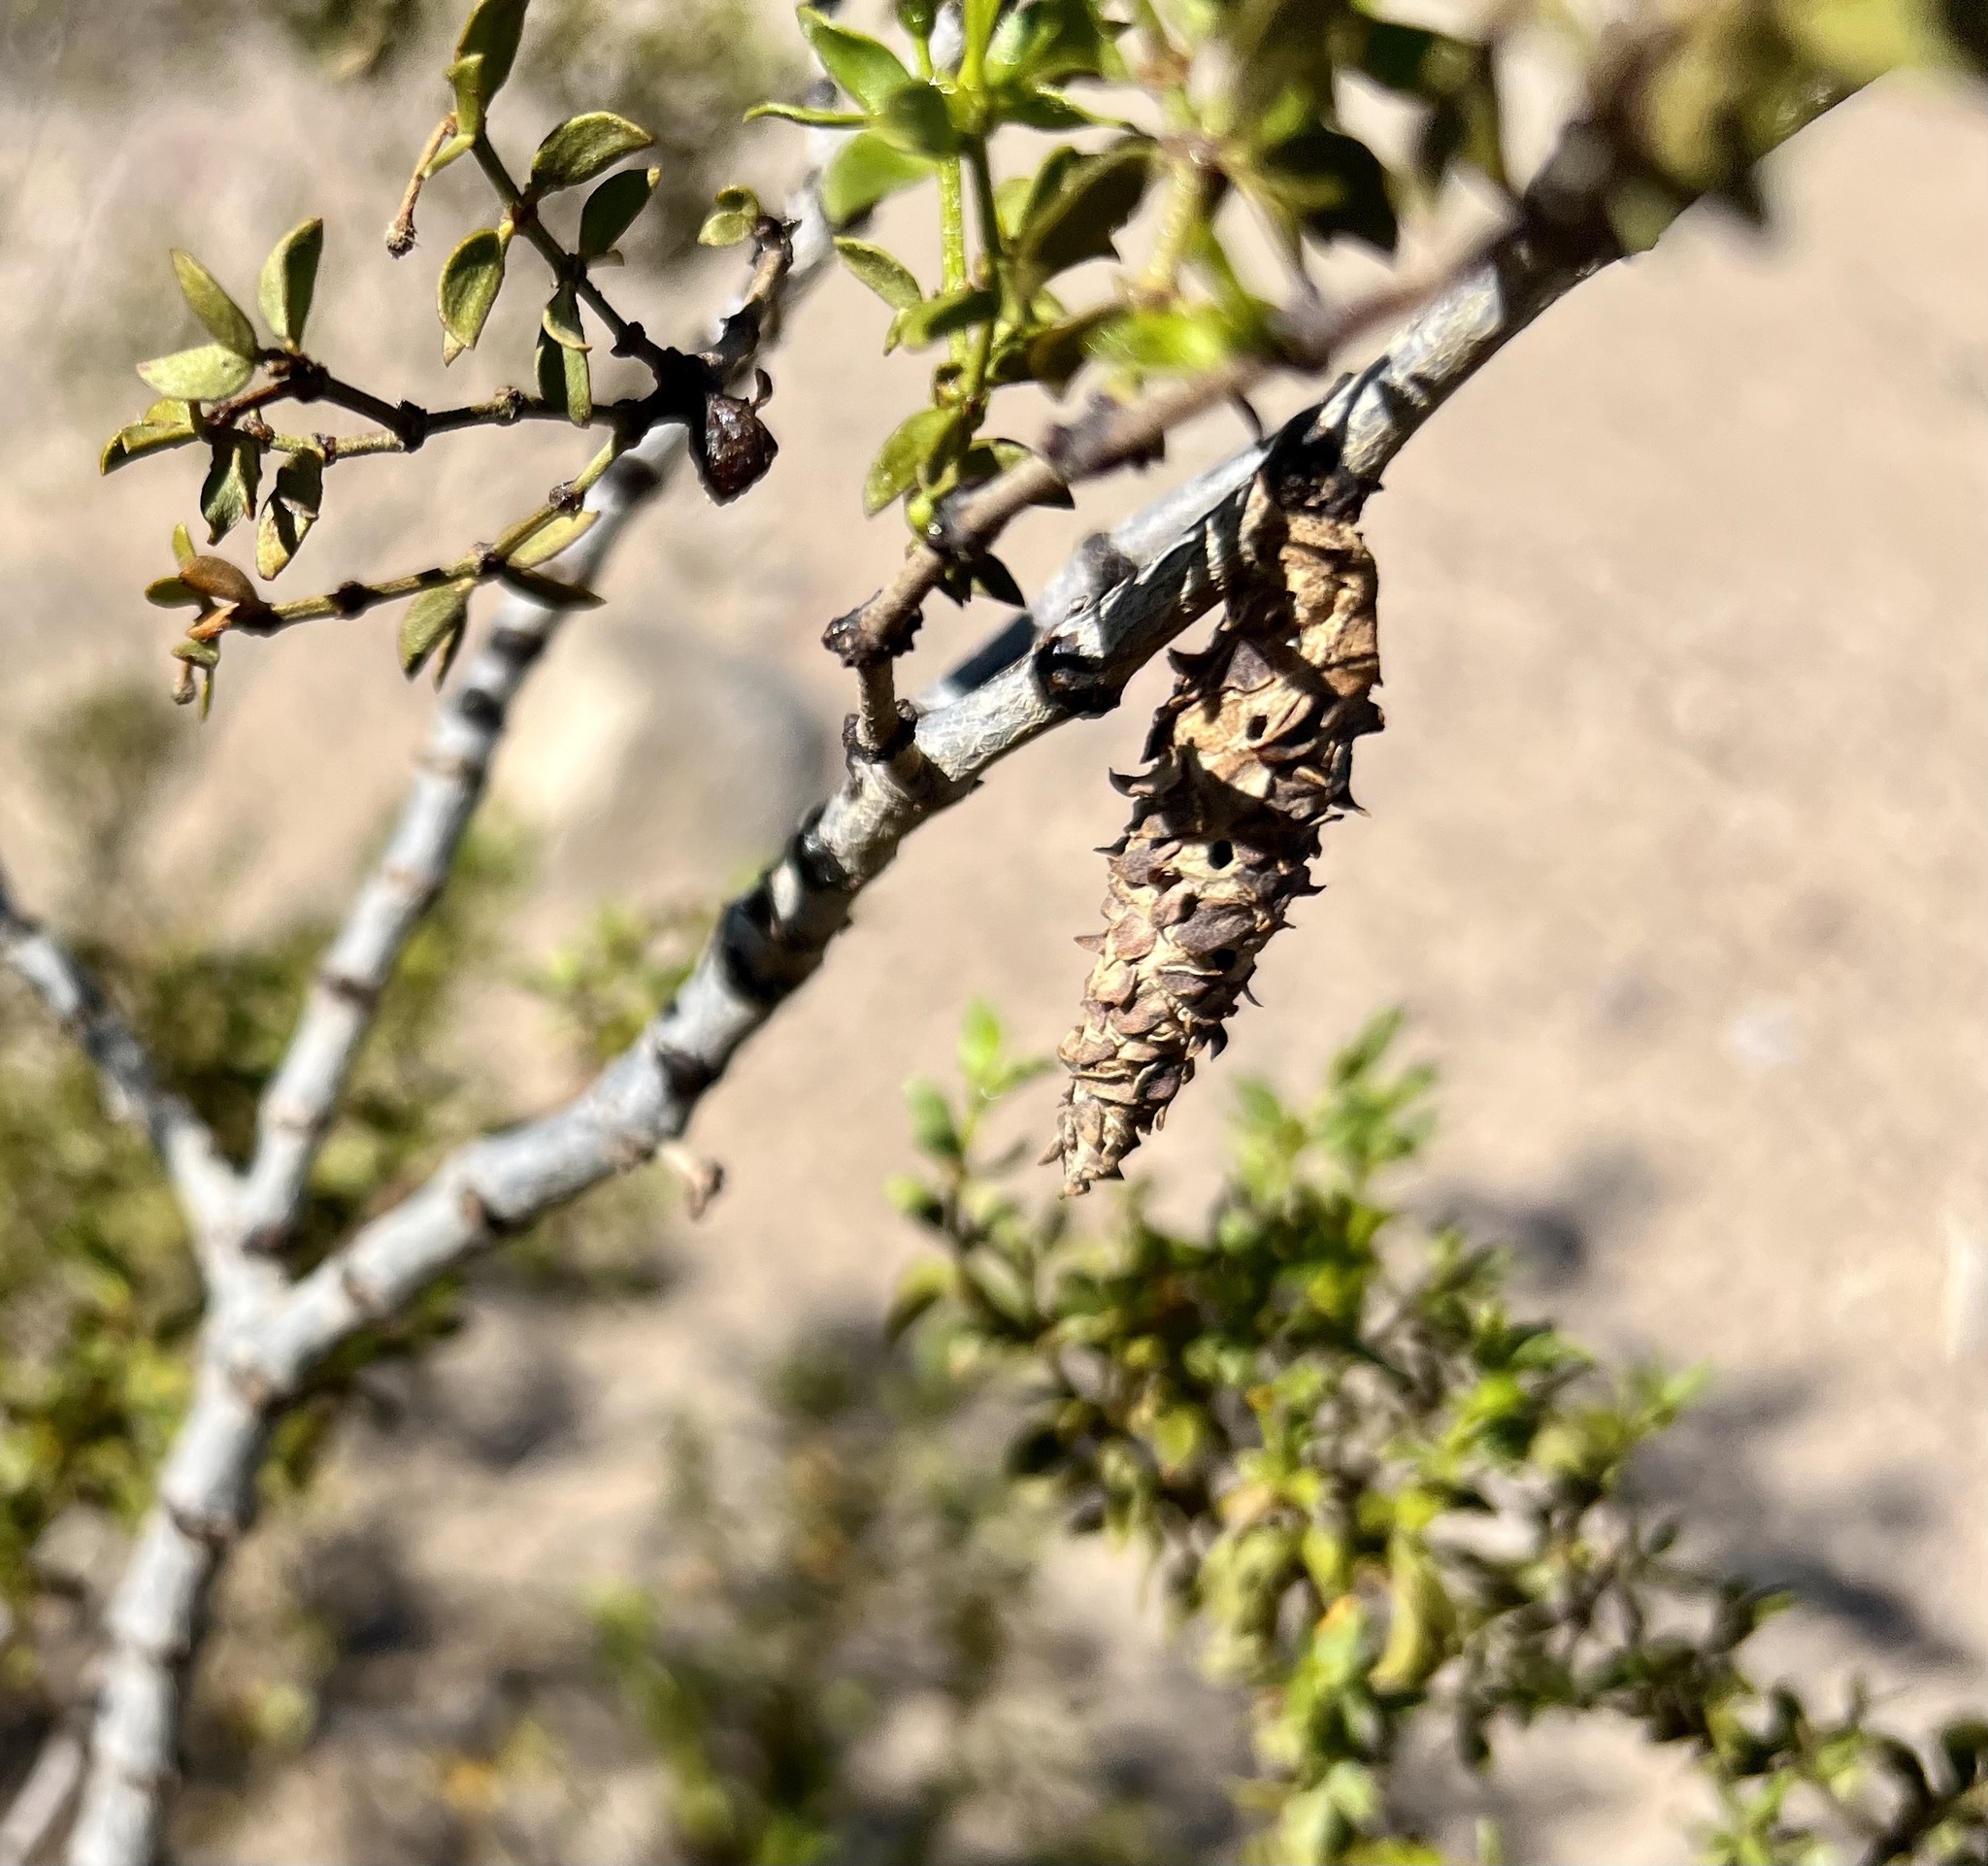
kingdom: Animalia
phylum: Arthropoda
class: Insecta
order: Lepidoptera
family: Psychidae
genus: Thyridopteryx
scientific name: Thyridopteryx meadii
